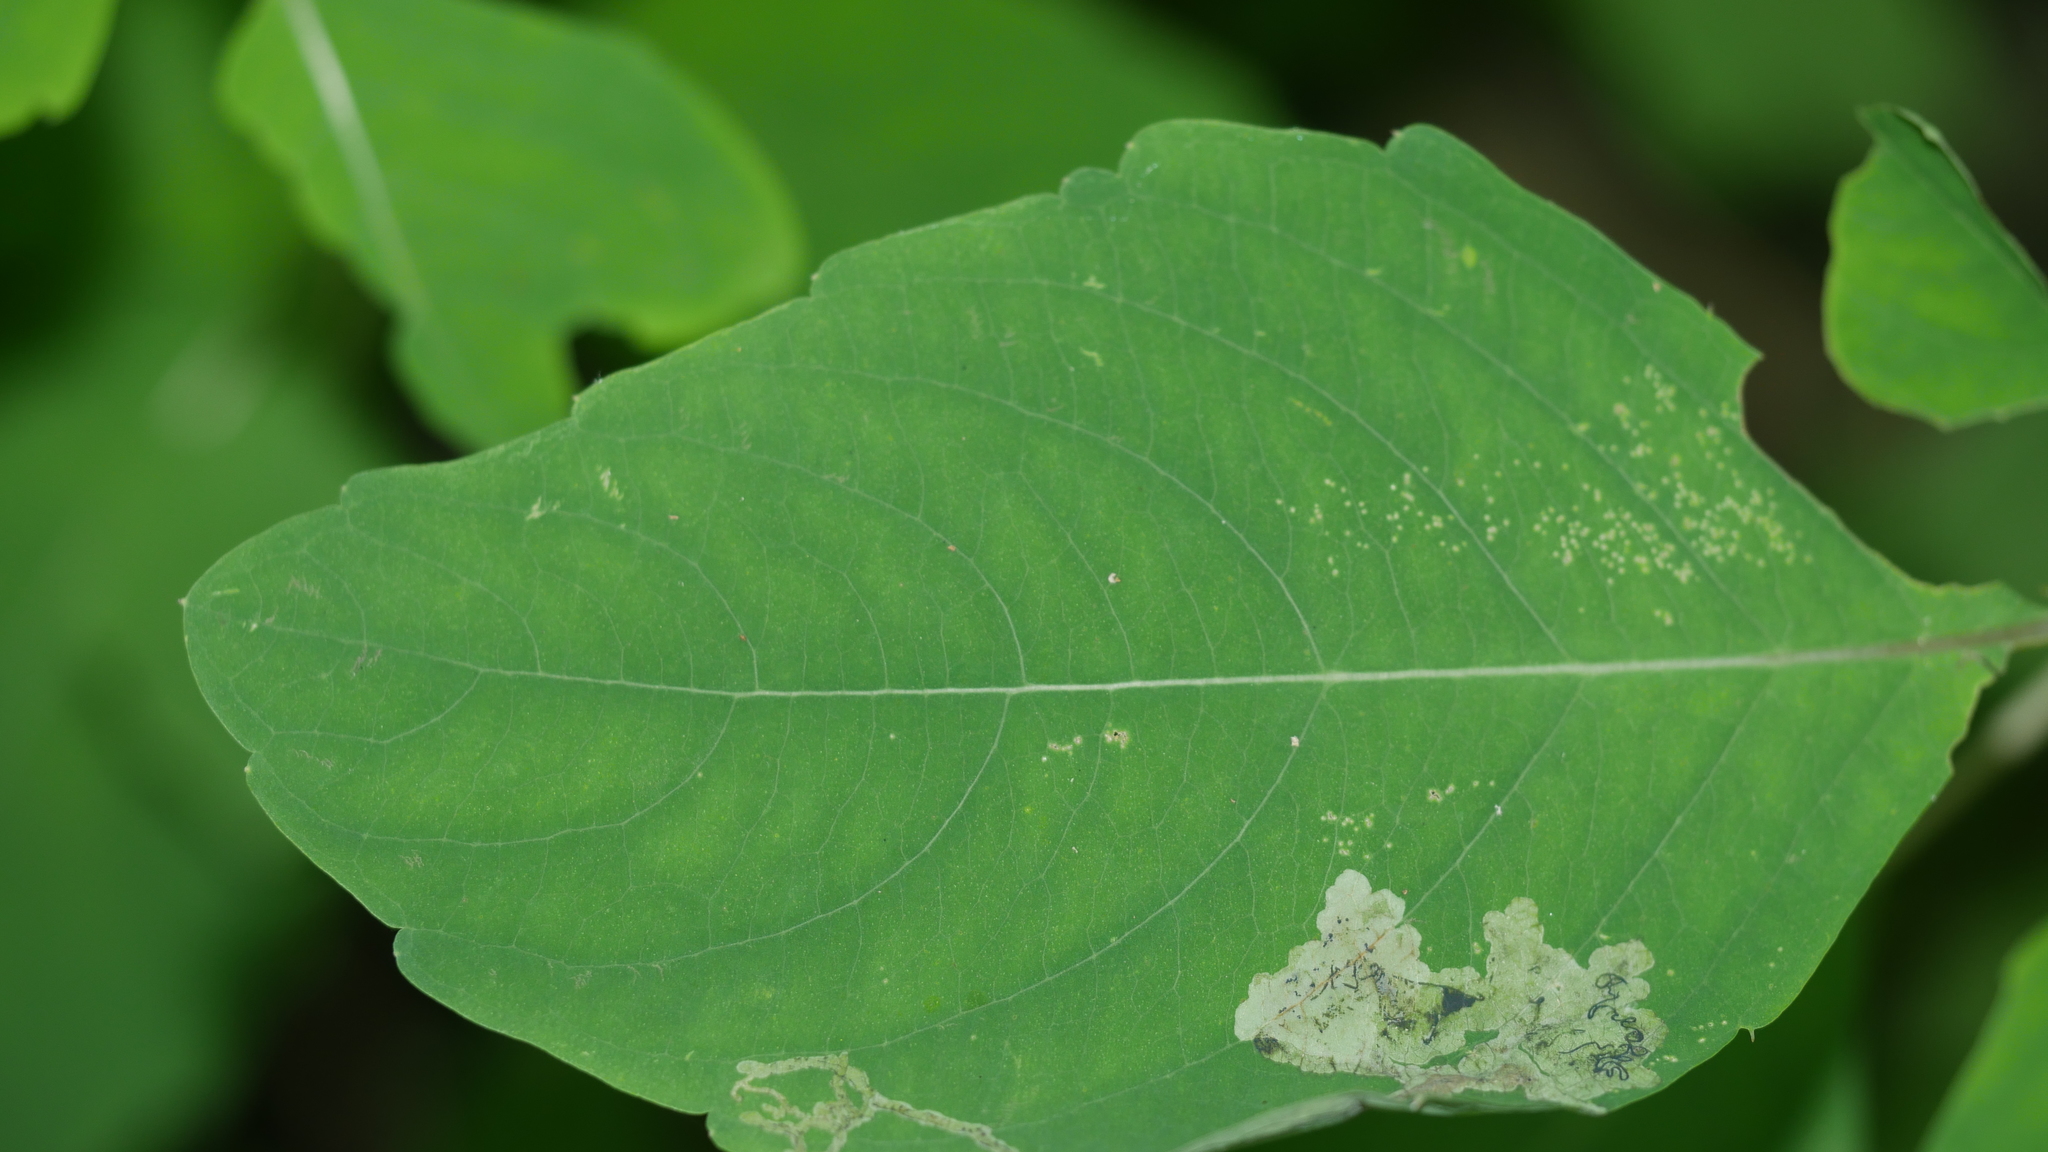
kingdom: Animalia
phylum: Arthropoda
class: Insecta
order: Diptera
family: Agromyzidae
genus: Phytoliriomyza
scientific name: Phytoliriomyza melampyga
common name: Jewelweed leaf-miner fly
